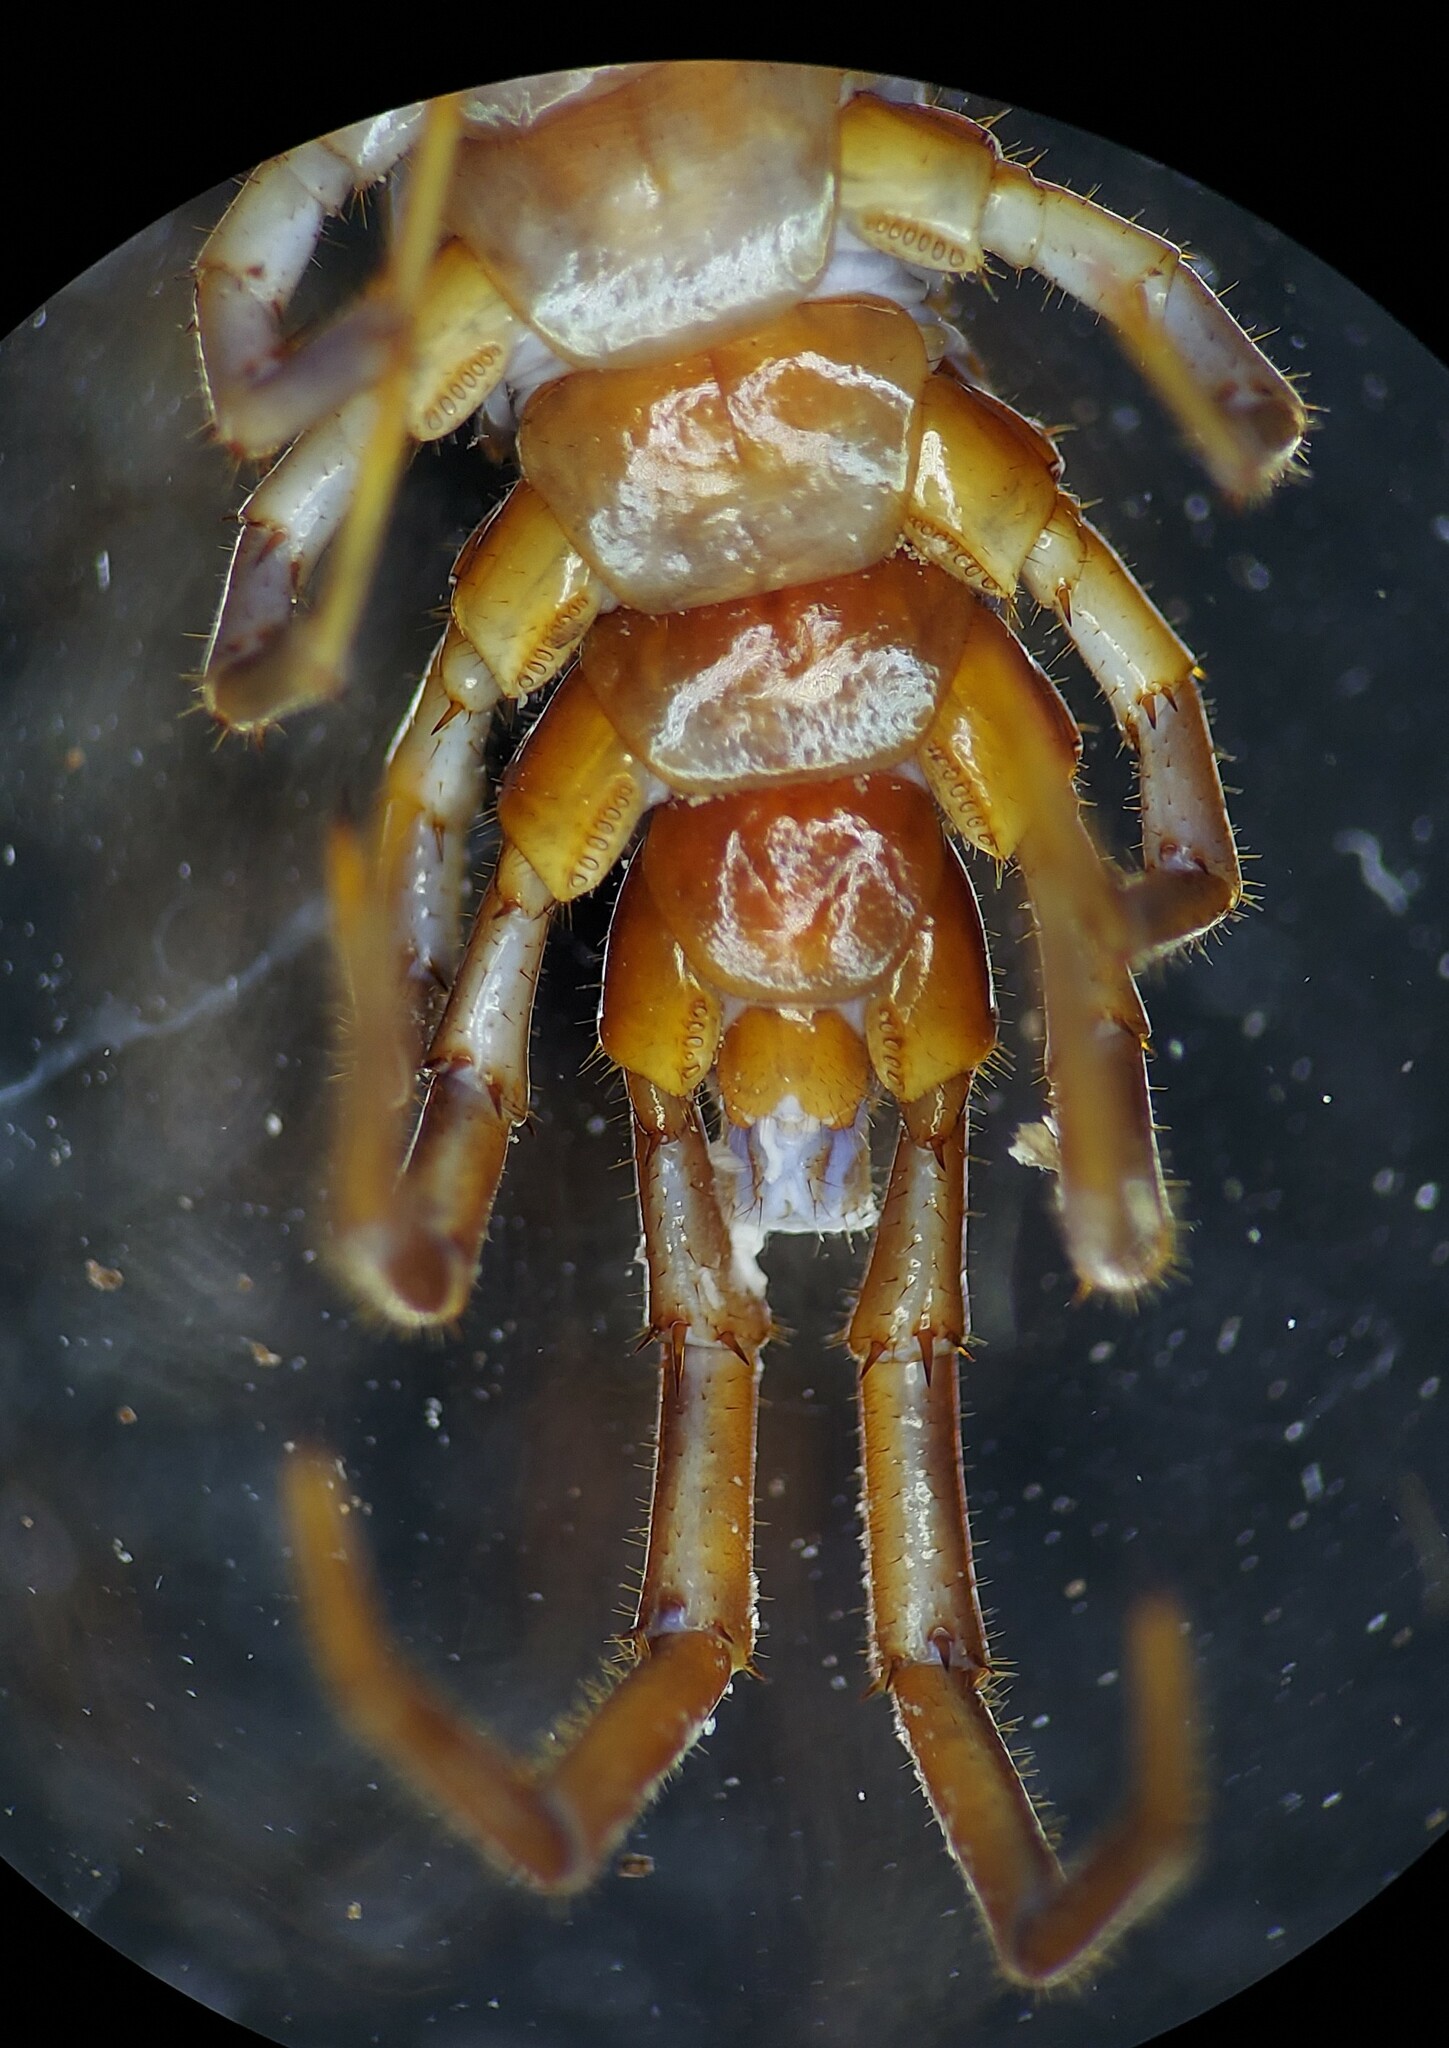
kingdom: Animalia
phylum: Arthropoda
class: Chilopoda
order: Lithobiomorpha
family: Lithobiidae
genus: Lithobius
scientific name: Lithobius forficatus
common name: Centipede
